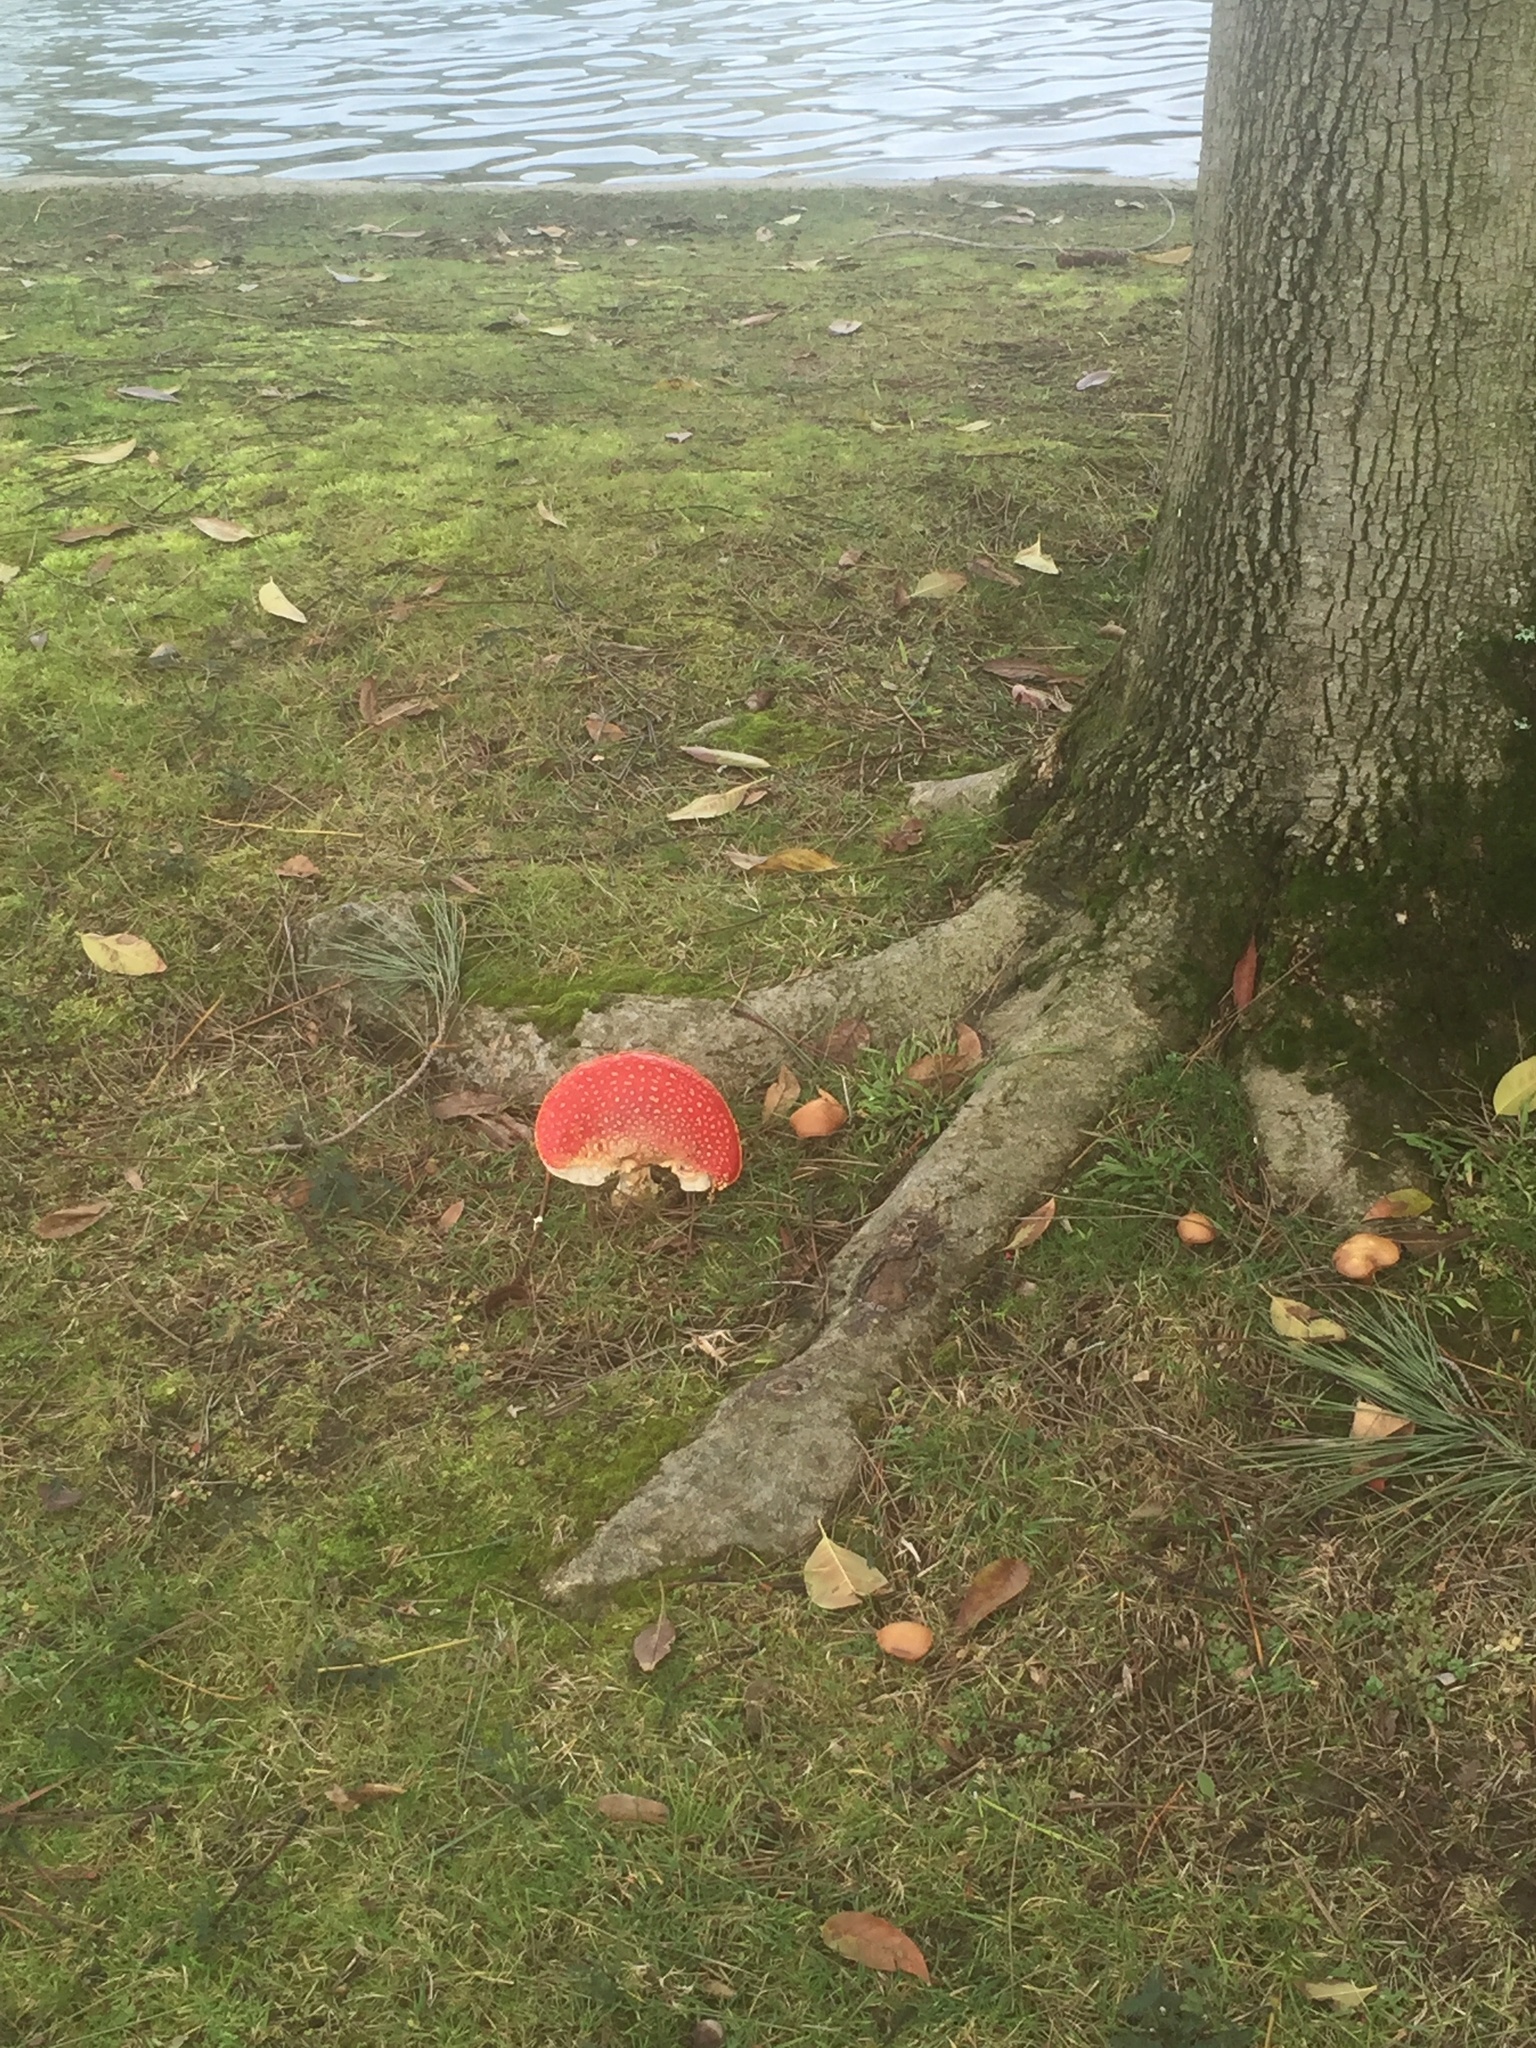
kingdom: Fungi
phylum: Basidiomycota
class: Agaricomycetes
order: Agaricales
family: Amanitaceae
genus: Amanita
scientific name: Amanita muscaria
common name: Fly agaric
